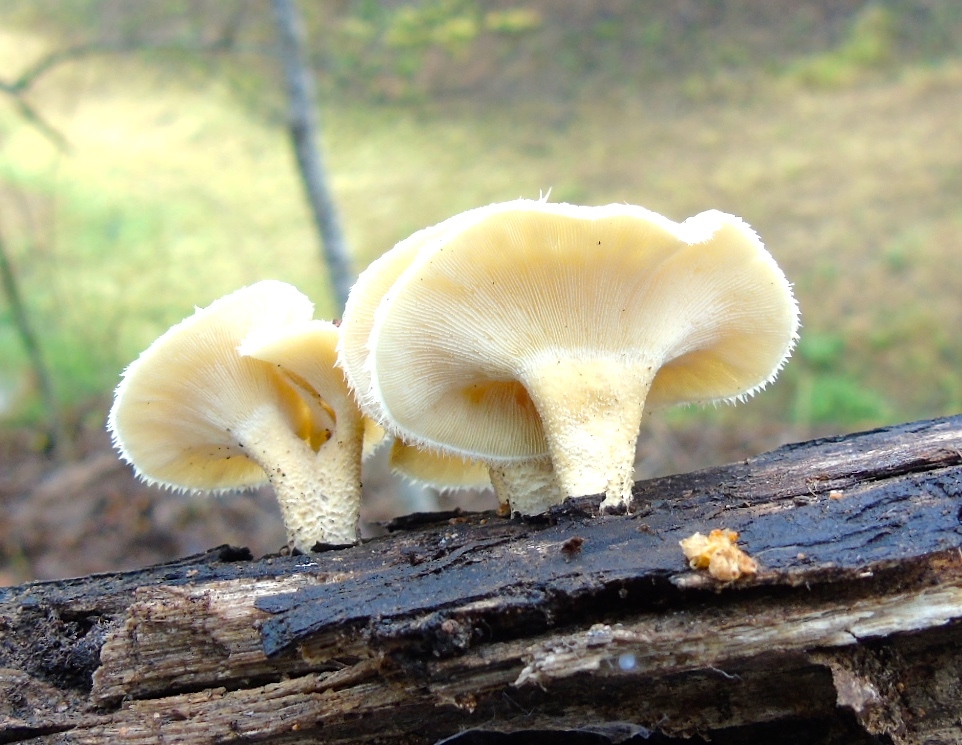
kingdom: Fungi
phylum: Basidiomycota
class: Agaricomycetes
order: Polyporales
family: Polyporaceae
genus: Lentinus
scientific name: Lentinus crinitus
